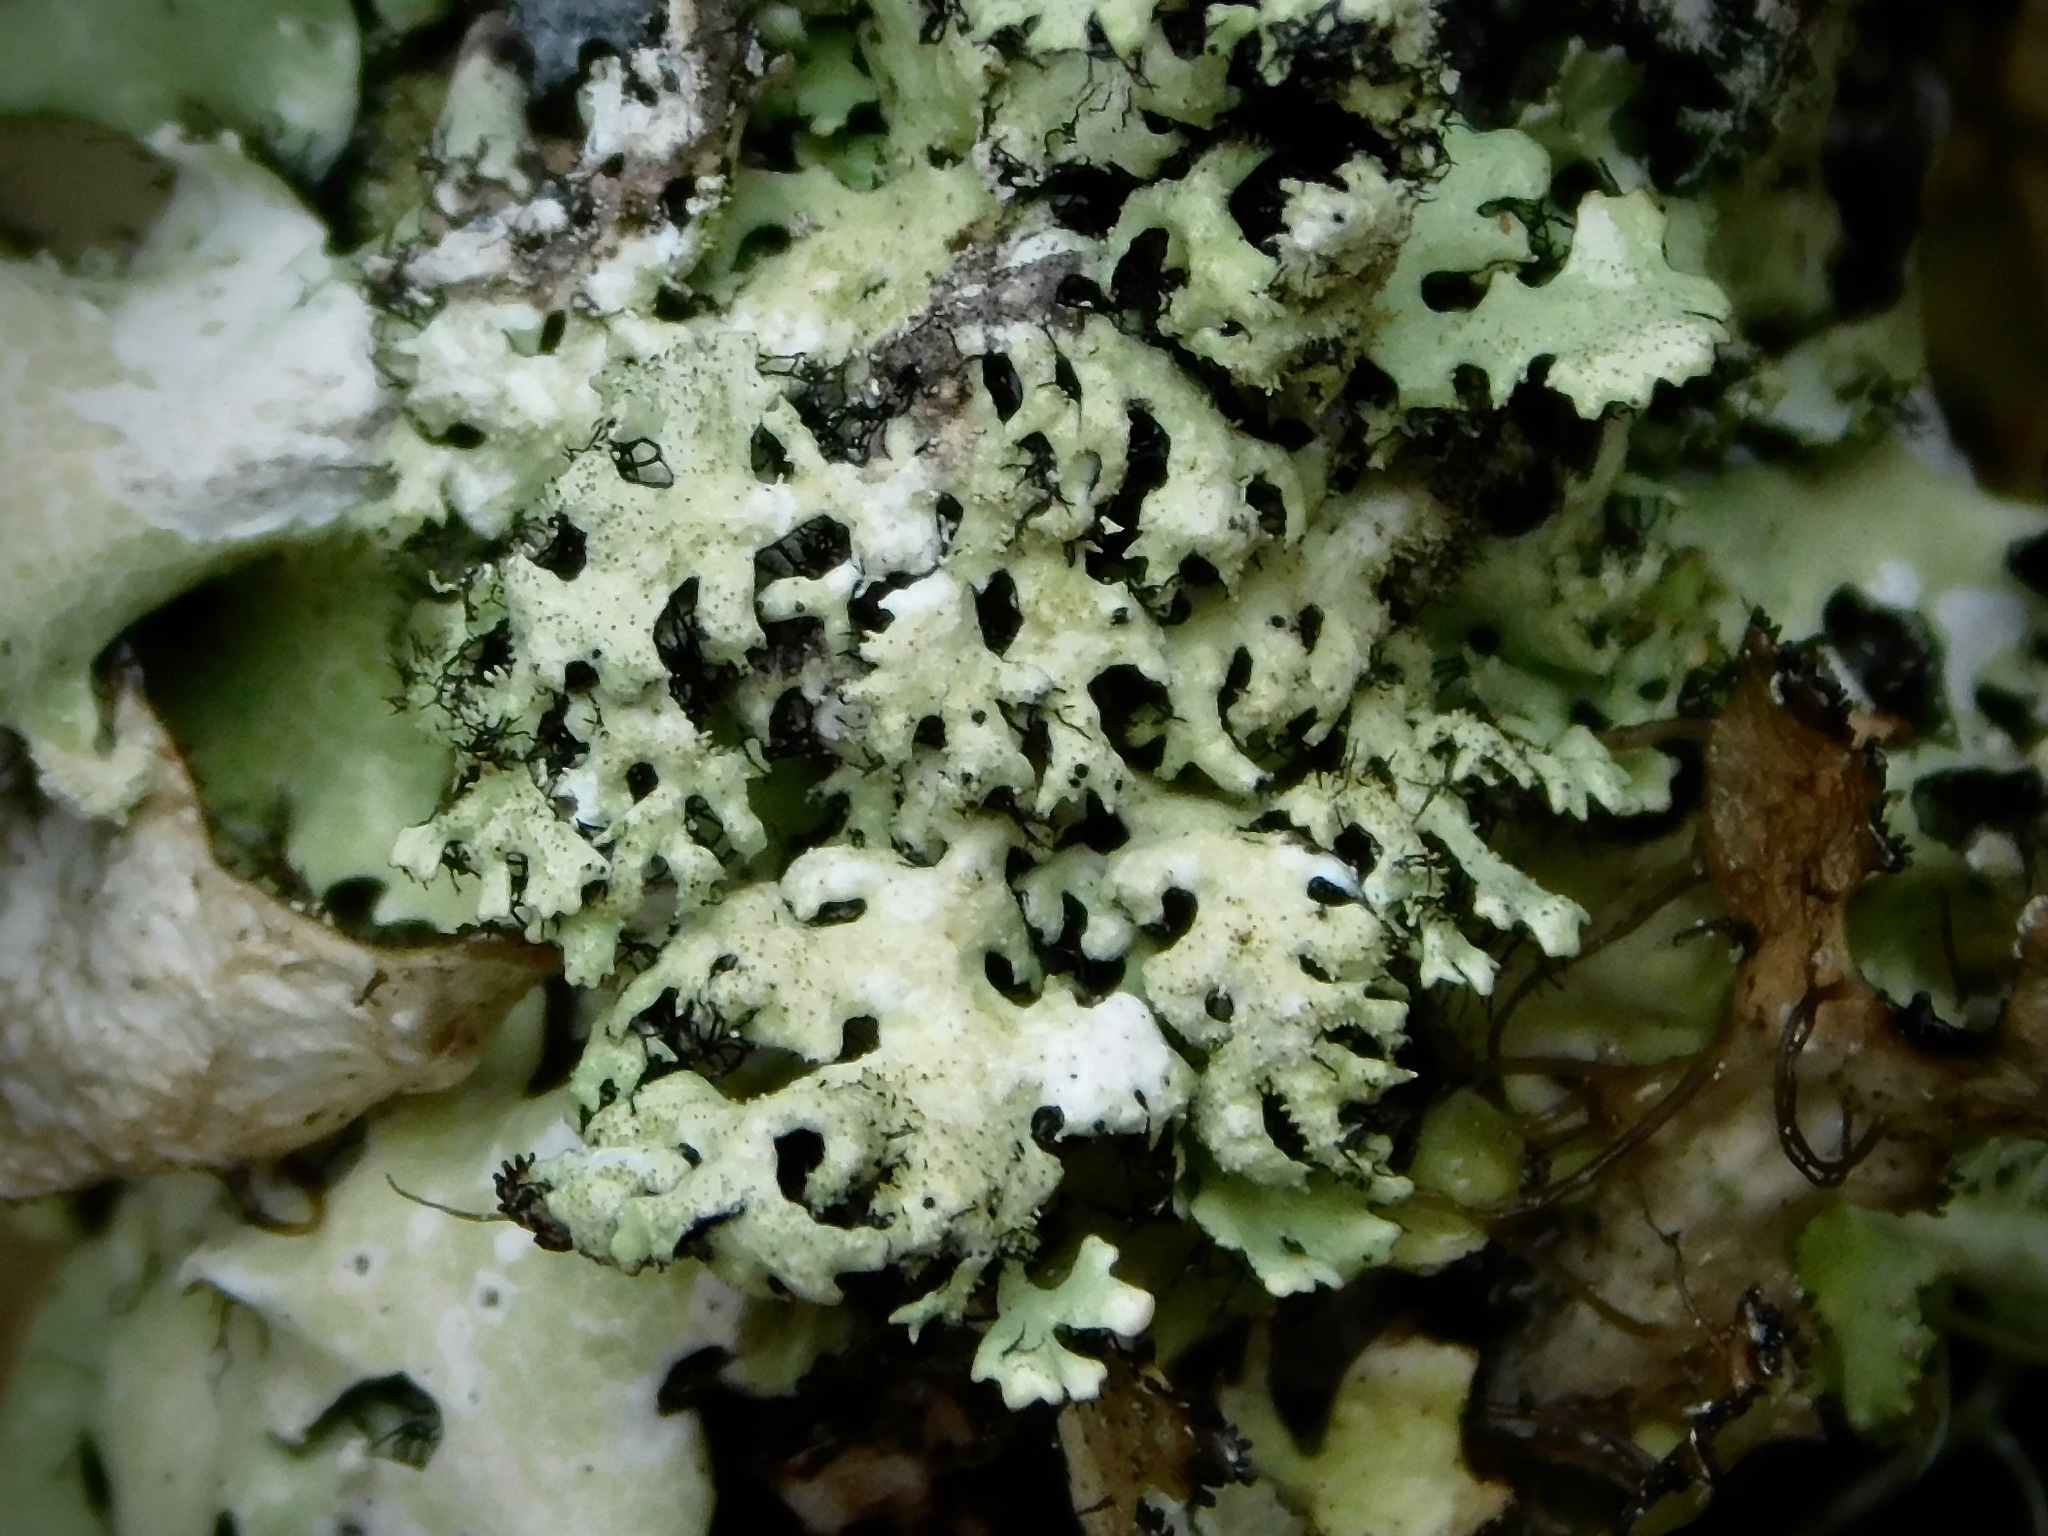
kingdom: Fungi
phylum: Ascomycota
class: Lecanoromycetes
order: Lecanorales
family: Parmeliaceae
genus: Hypotrachyna
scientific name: Hypotrachyna virginica
